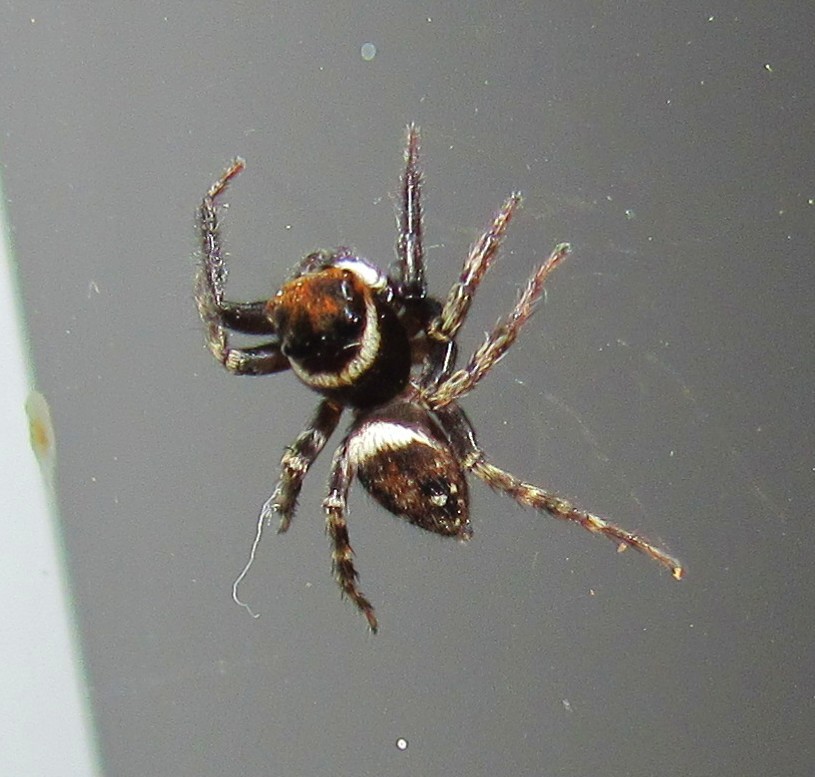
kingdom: Animalia
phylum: Arthropoda
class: Arachnida
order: Araneae
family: Salticidae
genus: Hasarius
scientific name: Hasarius adansoni
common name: Jumping spider
